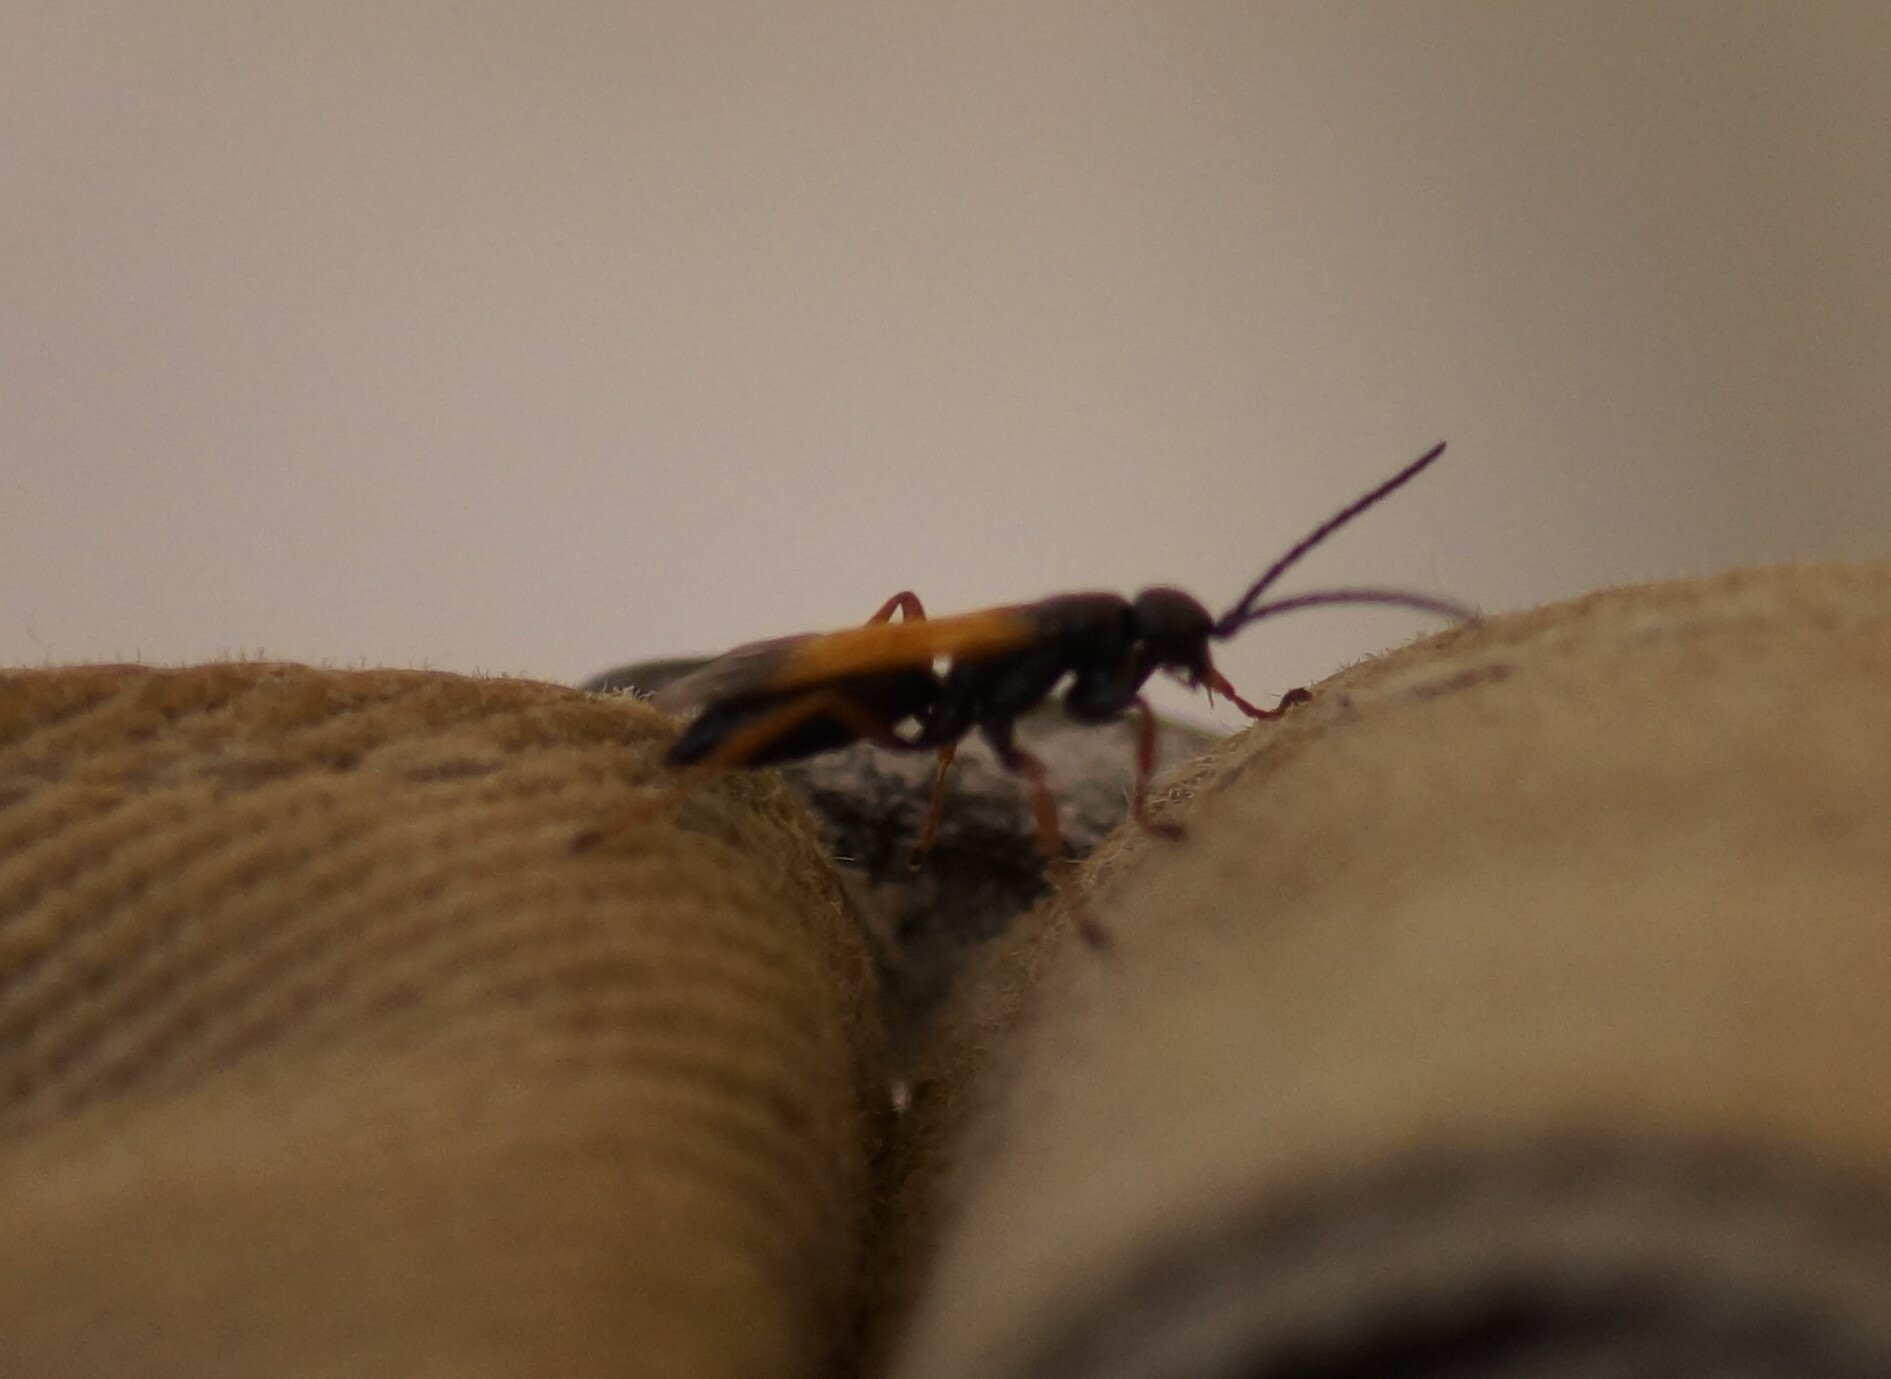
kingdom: Animalia
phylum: Arthropoda
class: Insecta
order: Hymenoptera
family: Pompilidae
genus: Priocnemis
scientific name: Priocnemis conformis
